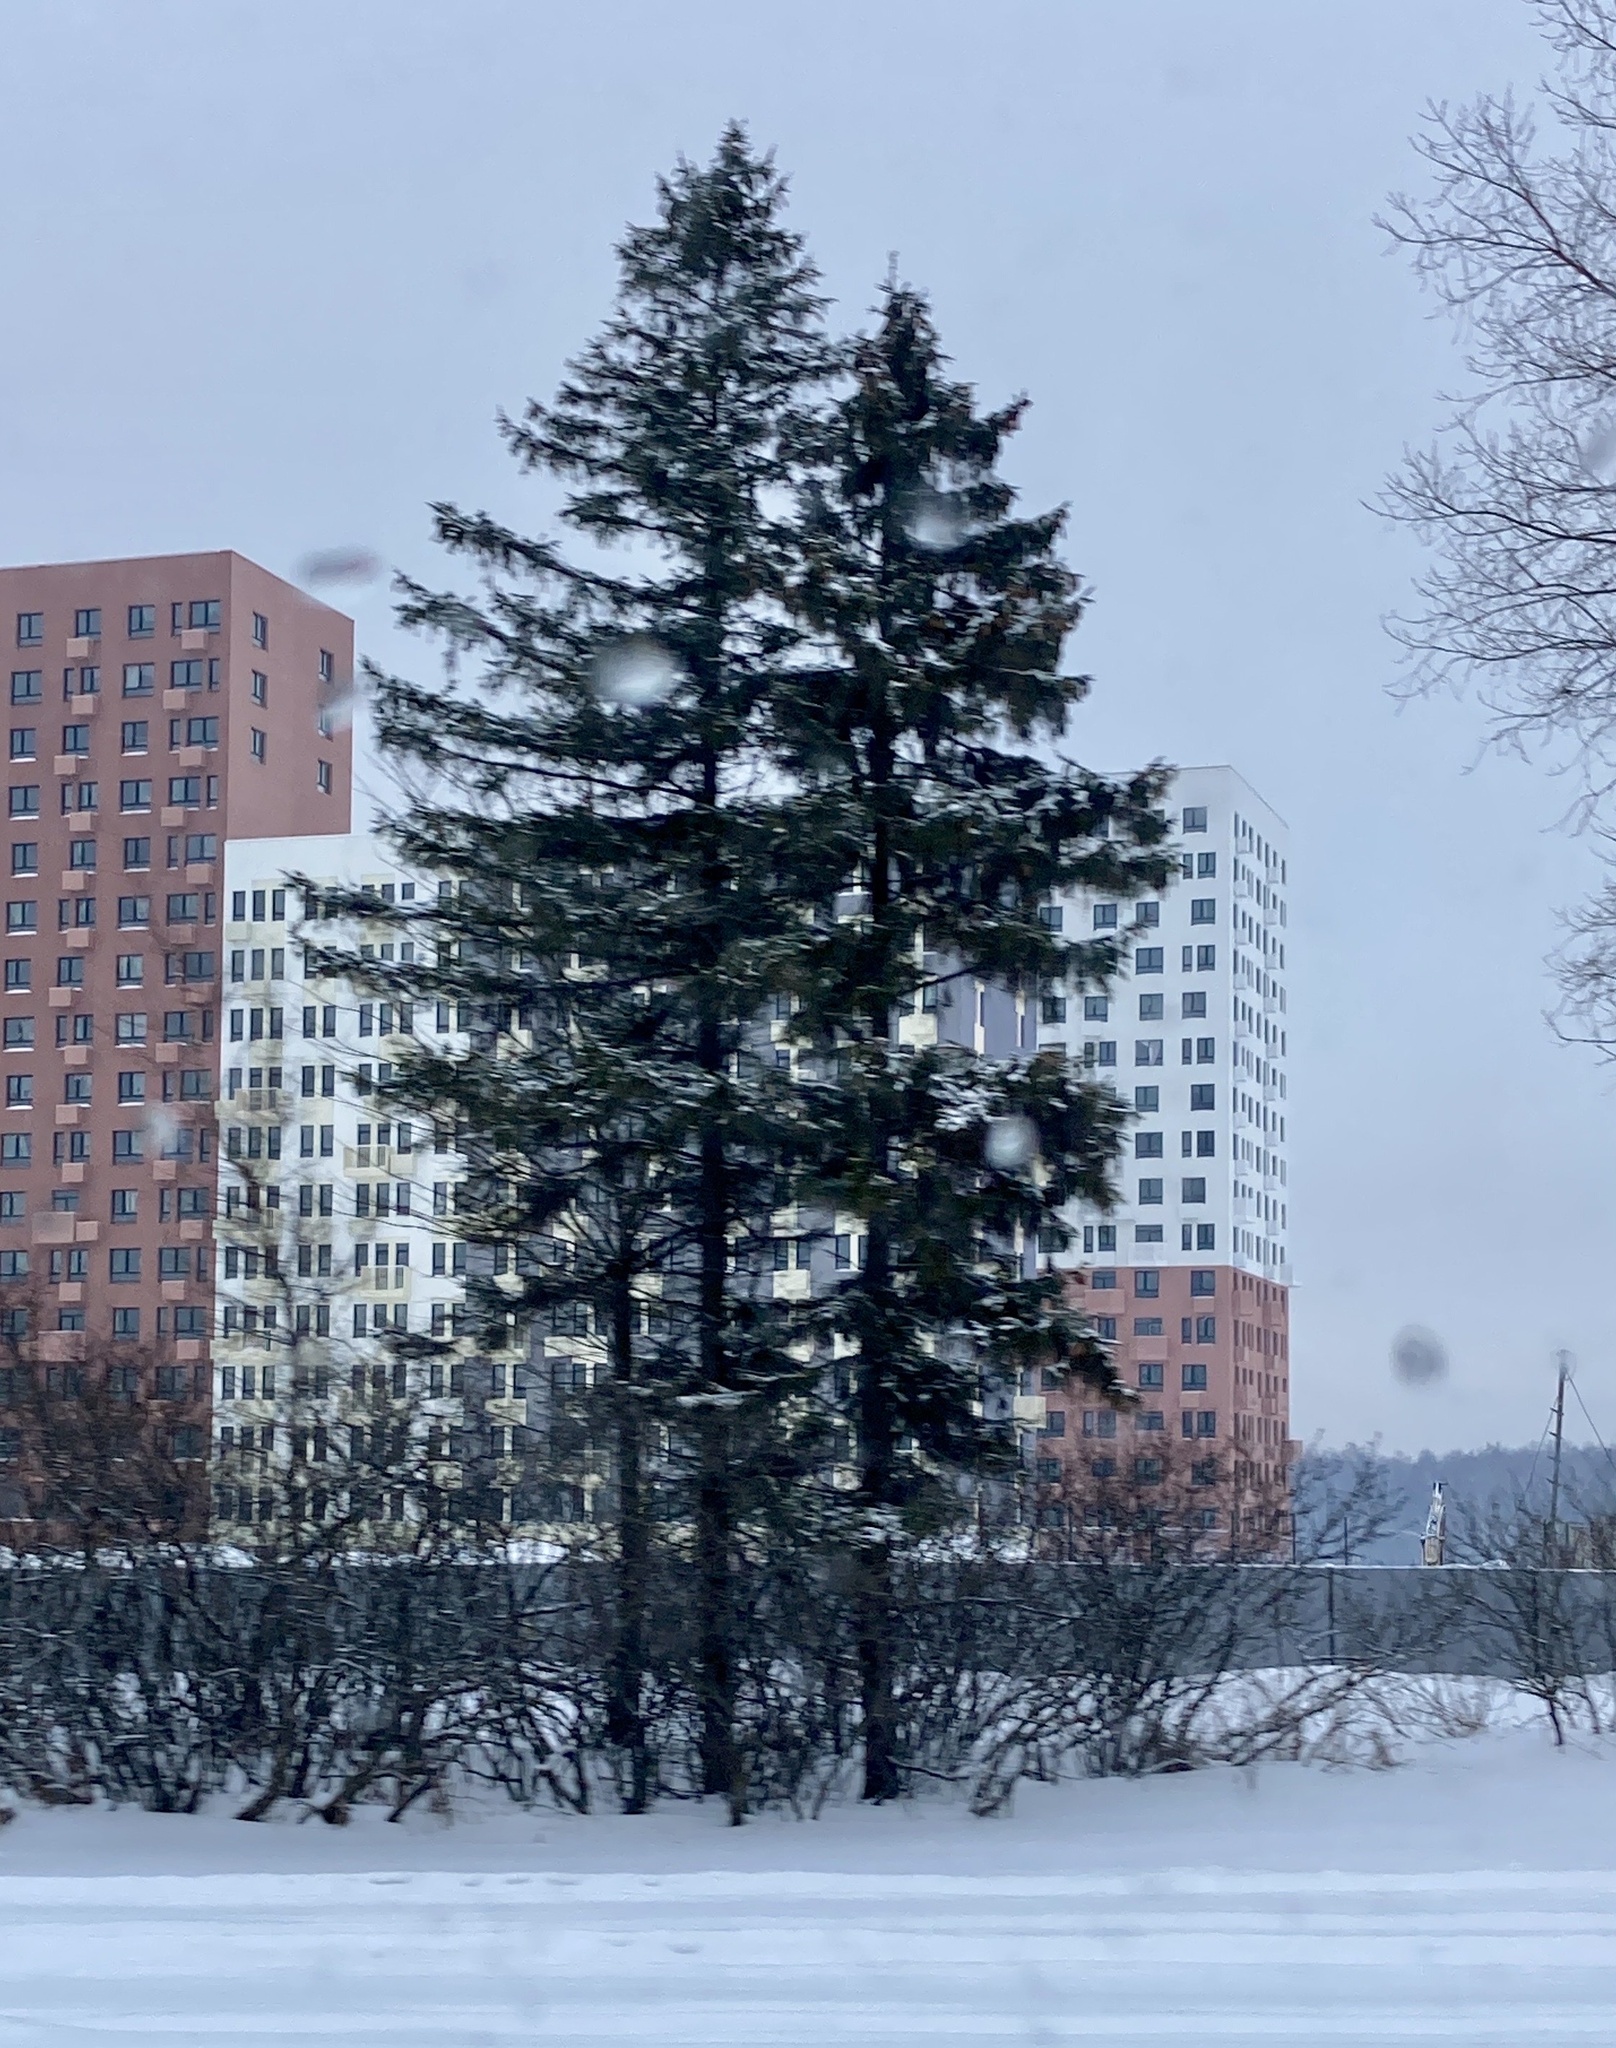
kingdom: Plantae
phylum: Tracheophyta
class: Pinopsida
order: Pinales
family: Pinaceae
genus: Picea
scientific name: Picea abies
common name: Norway spruce
